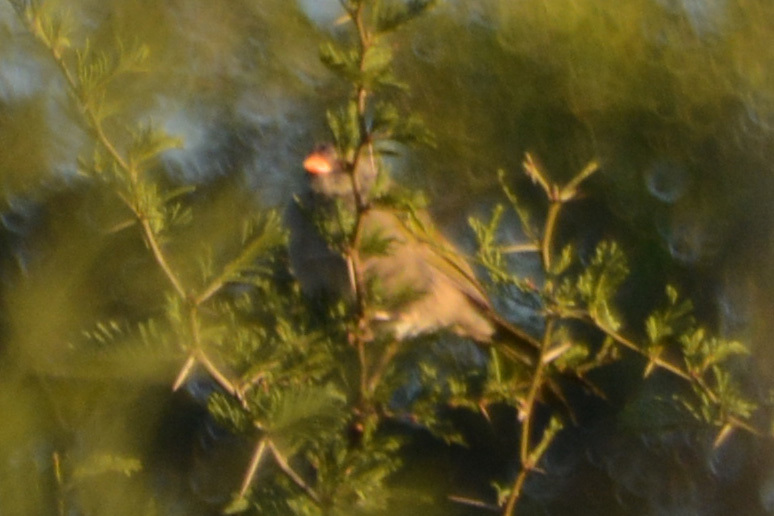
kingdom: Animalia
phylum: Chordata
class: Aves
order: Passeriformes
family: Thraupidae
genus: Embernagra
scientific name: Embernagra platensis
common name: Pampa finch
